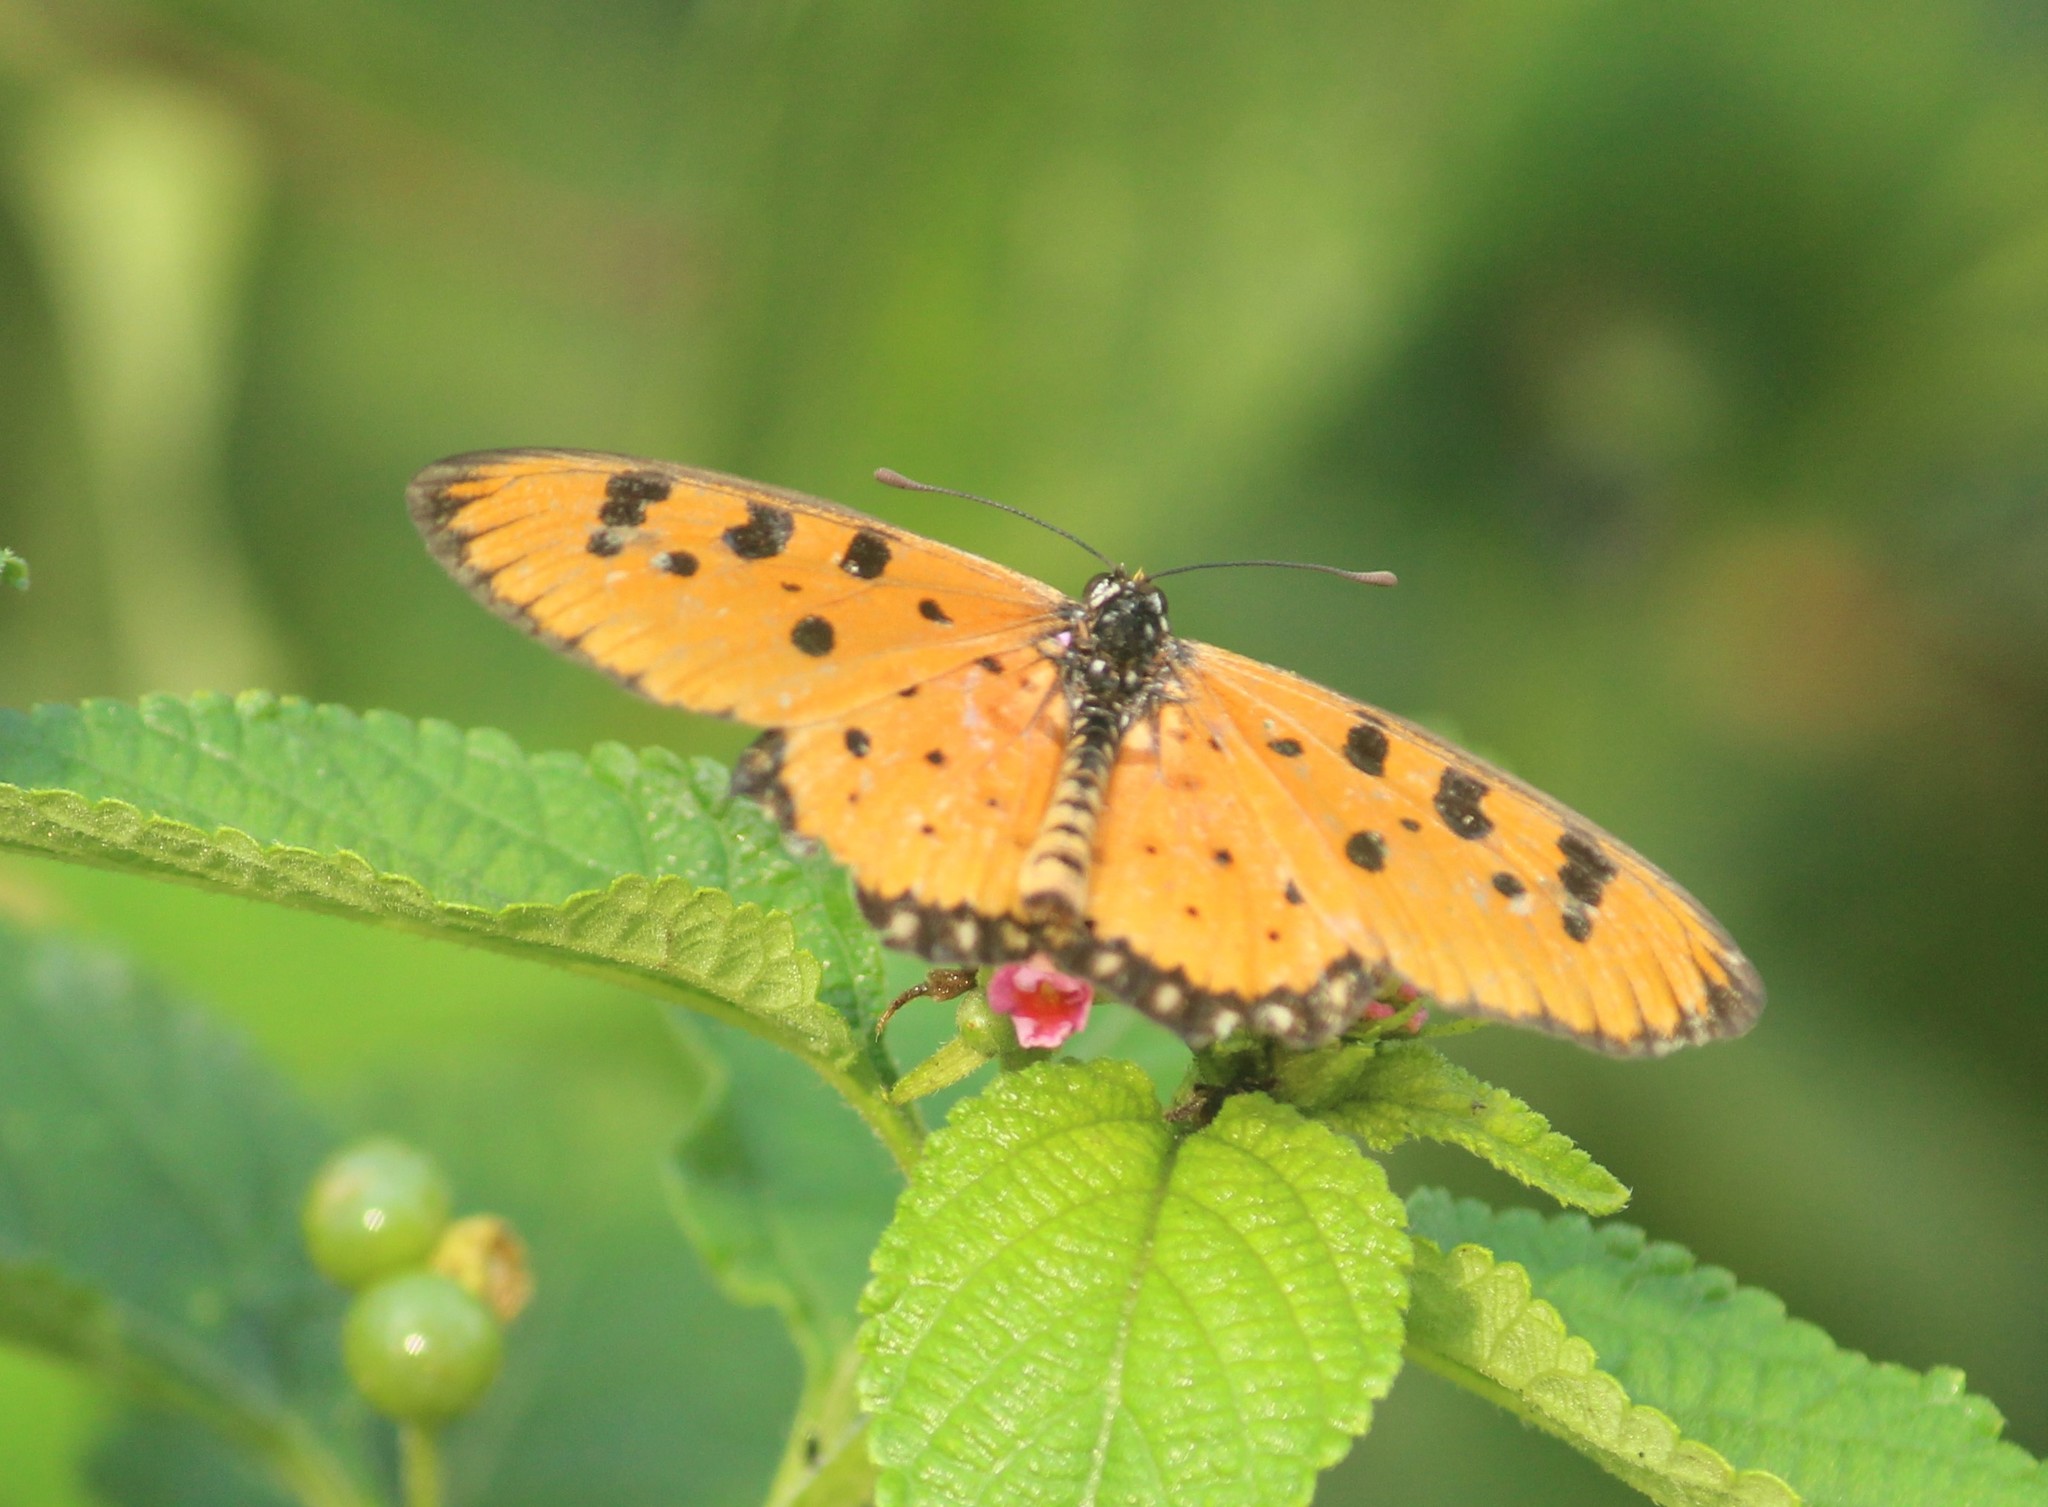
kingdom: Animalia
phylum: Arthropoda
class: Insecta
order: Lepidoptera
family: Nymphalidae
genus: Acraea
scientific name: Acraea terpsicore
